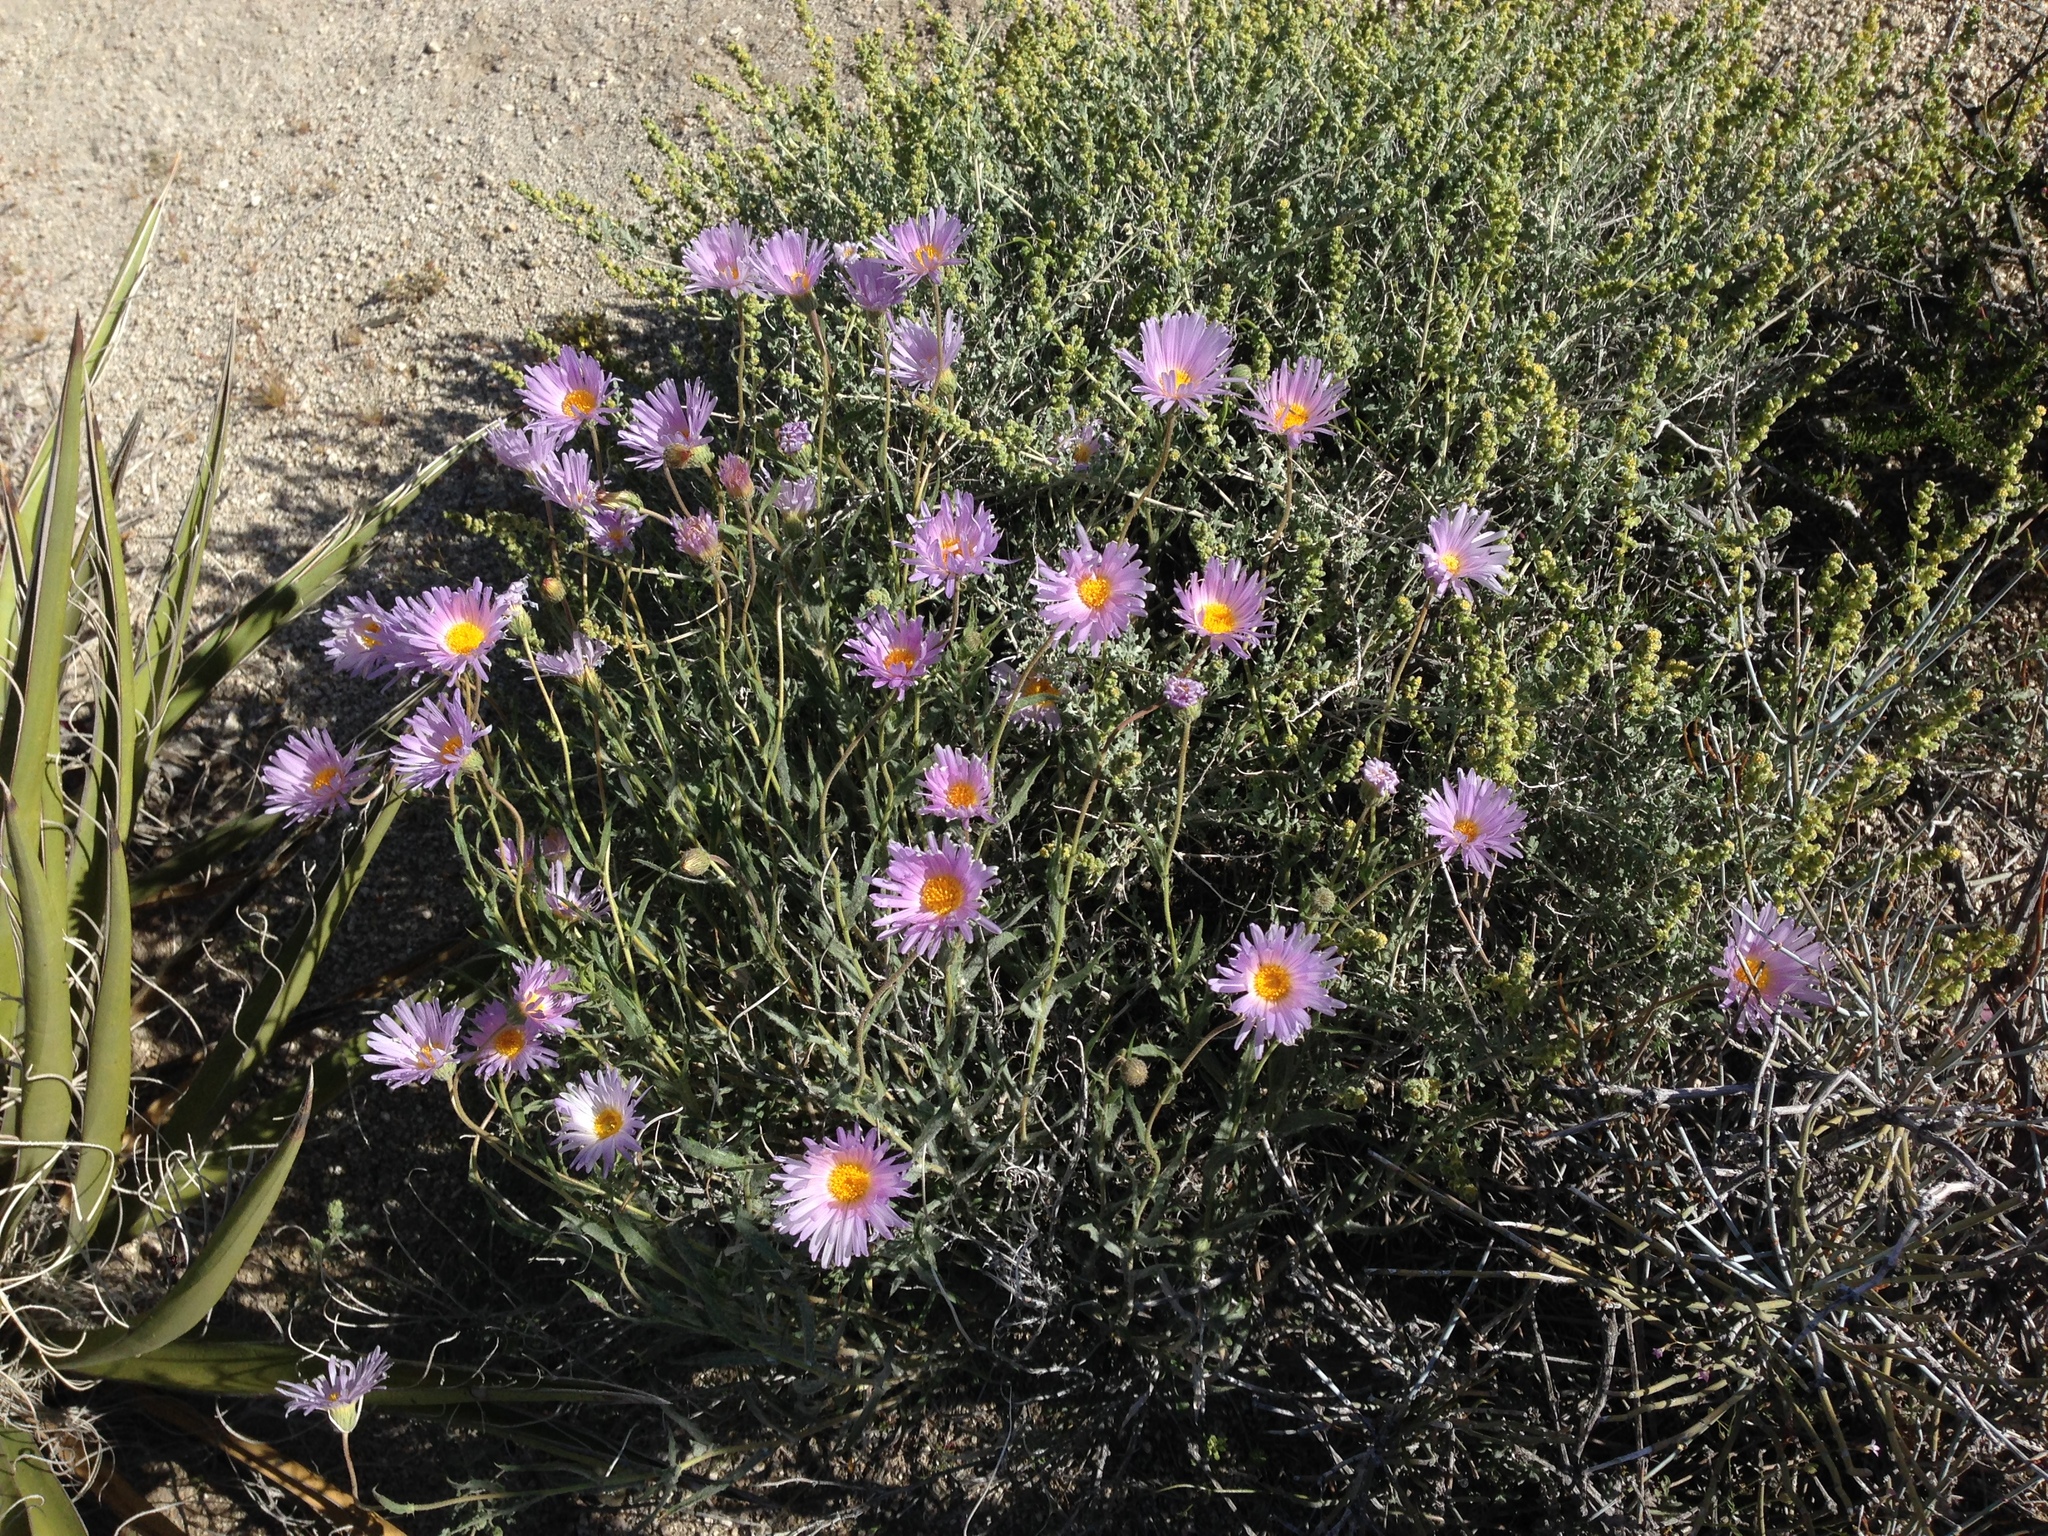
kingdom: Plantae
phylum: Tracheophyta
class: Liliopsida
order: Asparagales
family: Asparagaceae
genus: Yucca
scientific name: Yucca schidigera
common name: Mojave yucca
